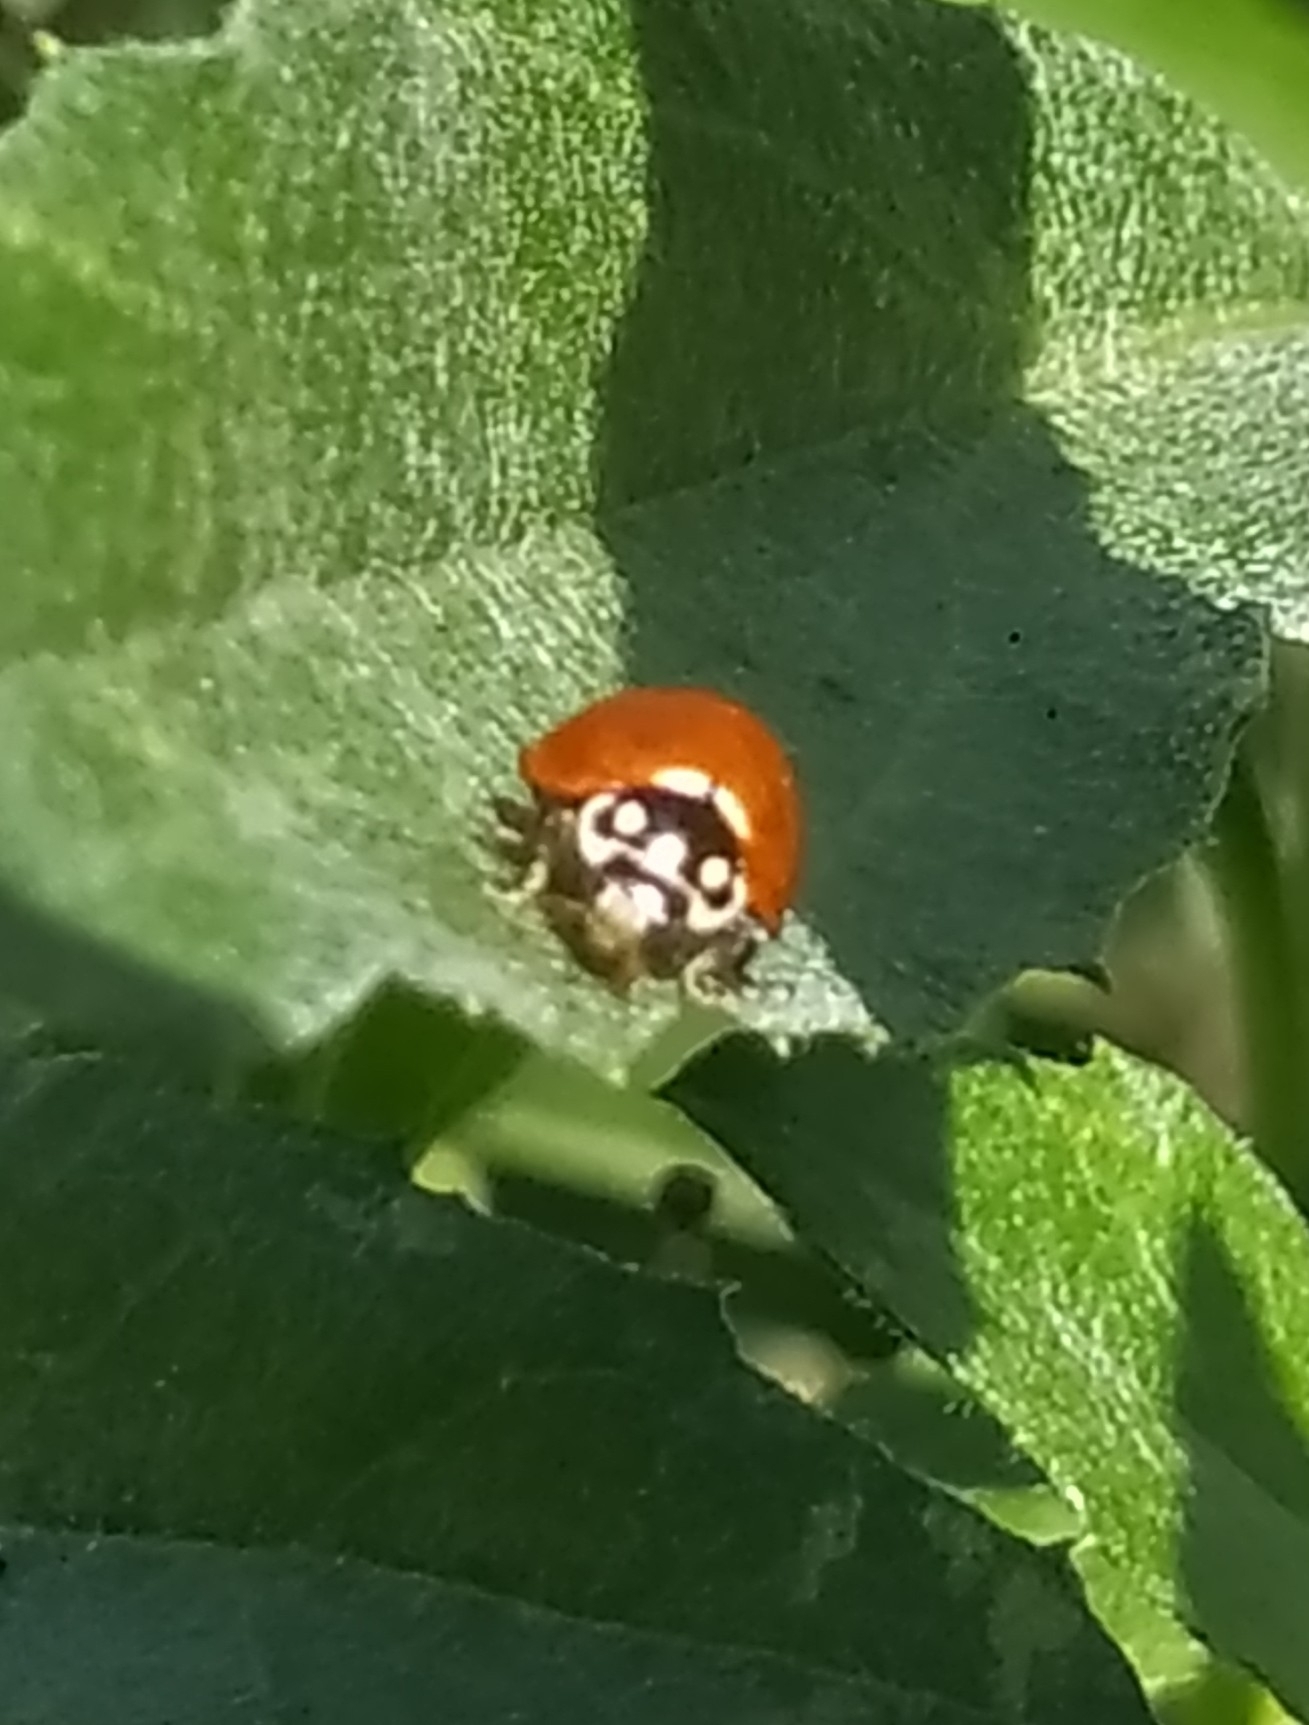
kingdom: Animalia
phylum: Arthropoda
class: Insecta
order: Coleoptera
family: Coccinellidae
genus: Cycloneda
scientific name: Cycloneda sanguinea
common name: Ladybird beetle
